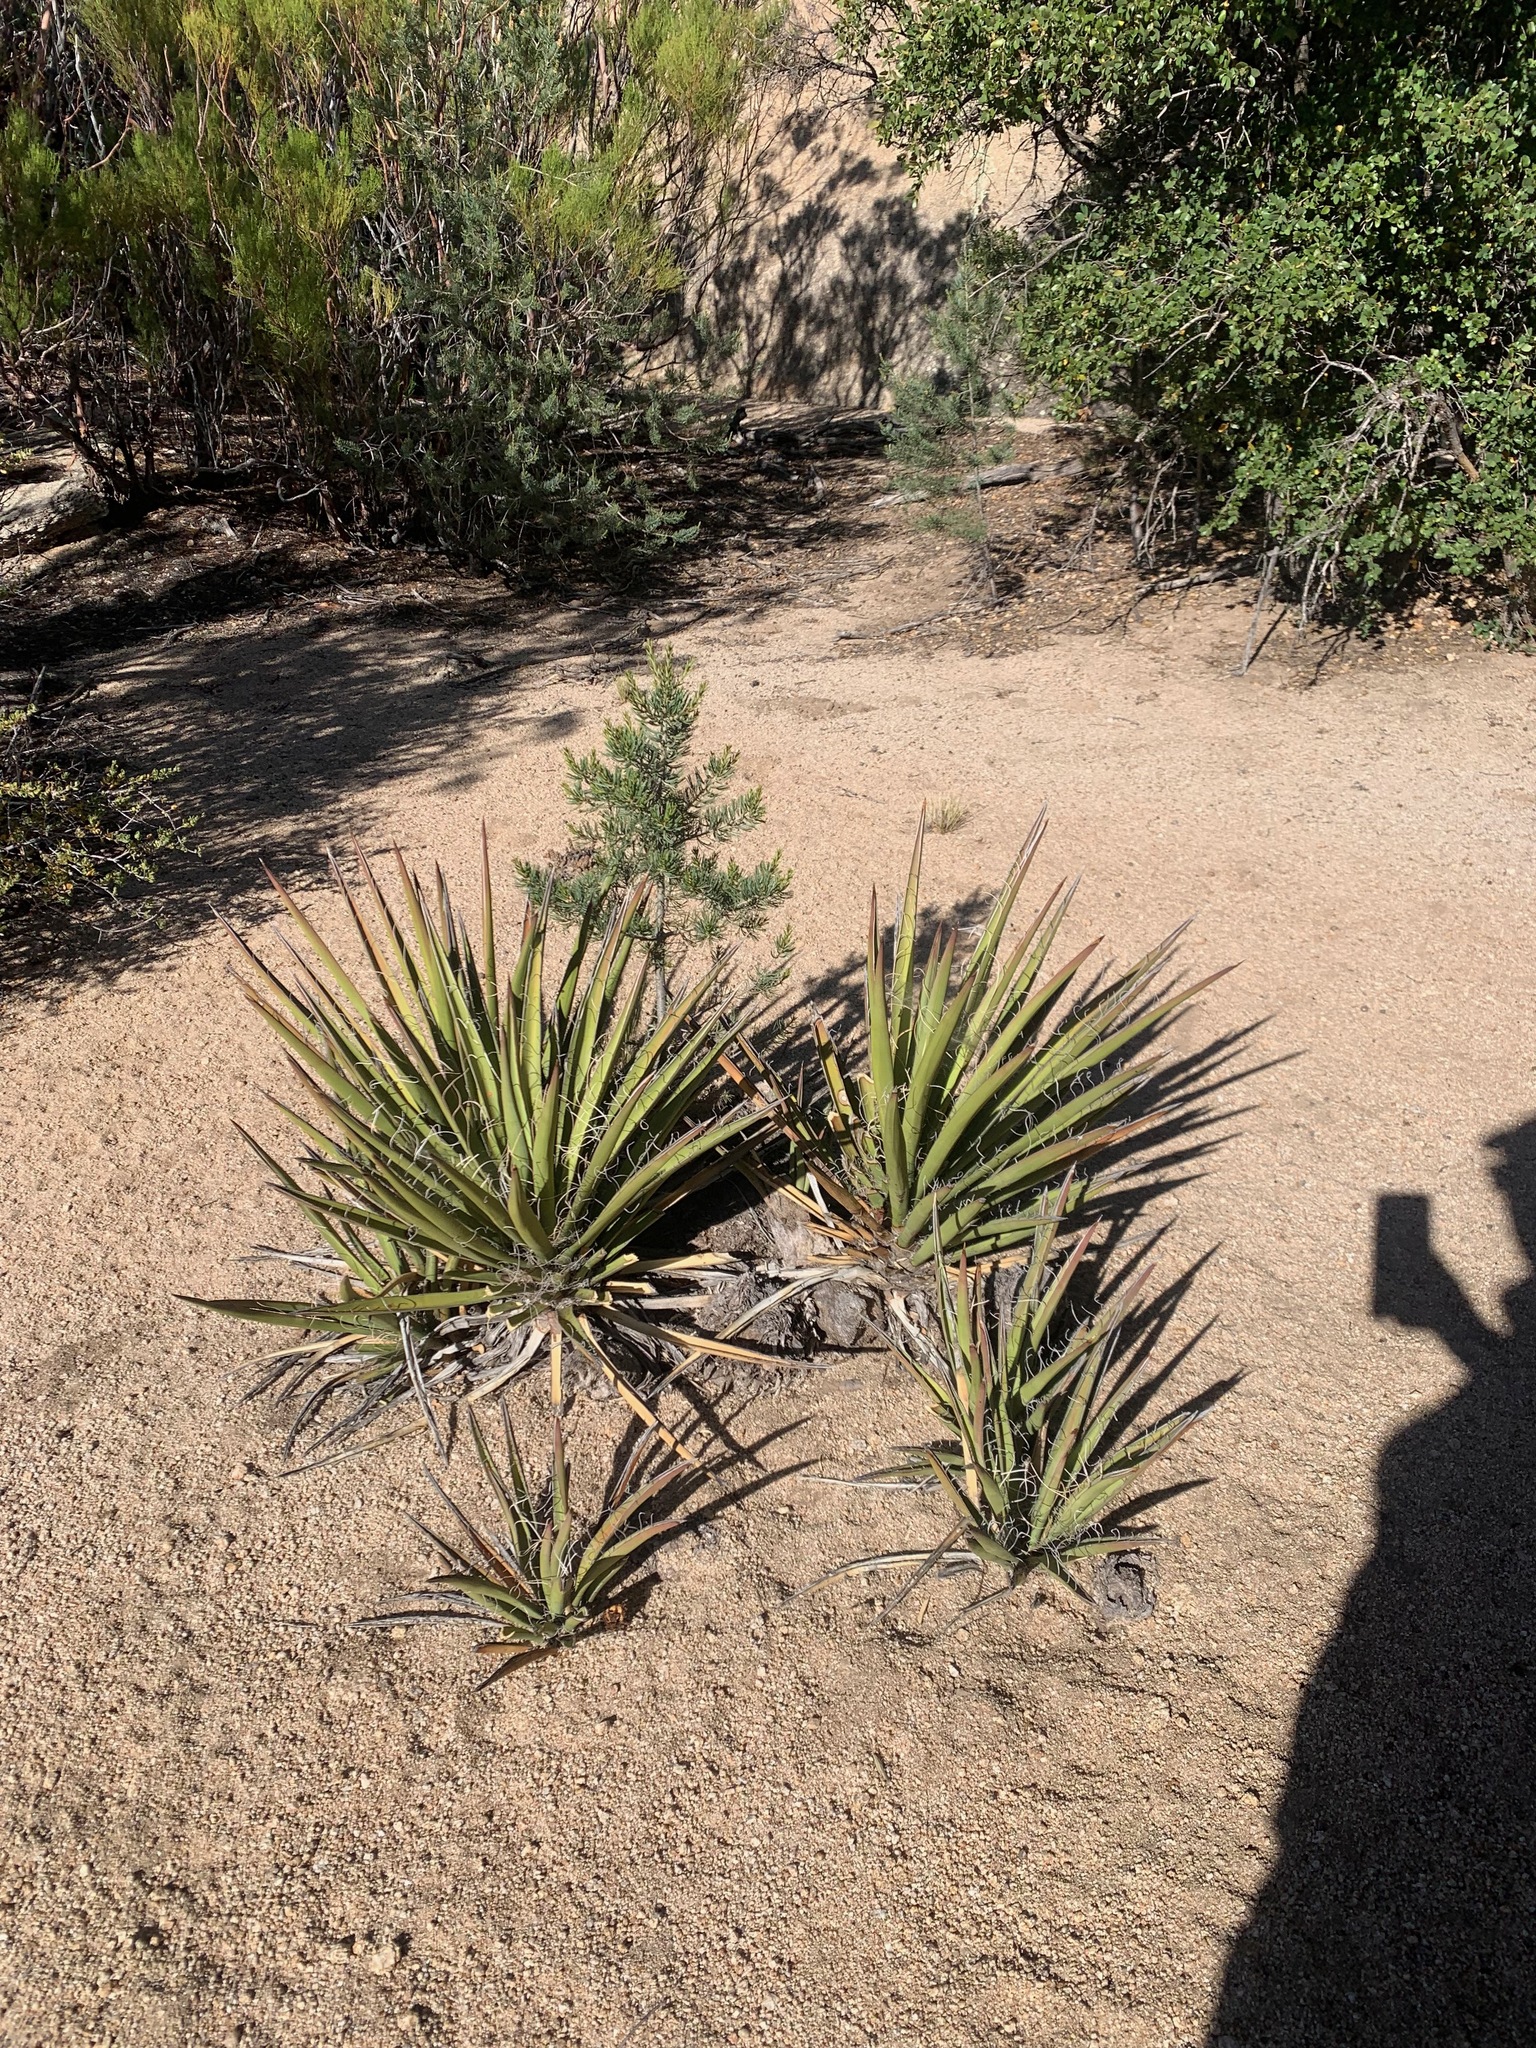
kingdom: Plantae
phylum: Tracheophyta
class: Liliopsida
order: Asparagales
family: Asparagaceae
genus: Yucca
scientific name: Yucca schidigera
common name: Mojave yucca
